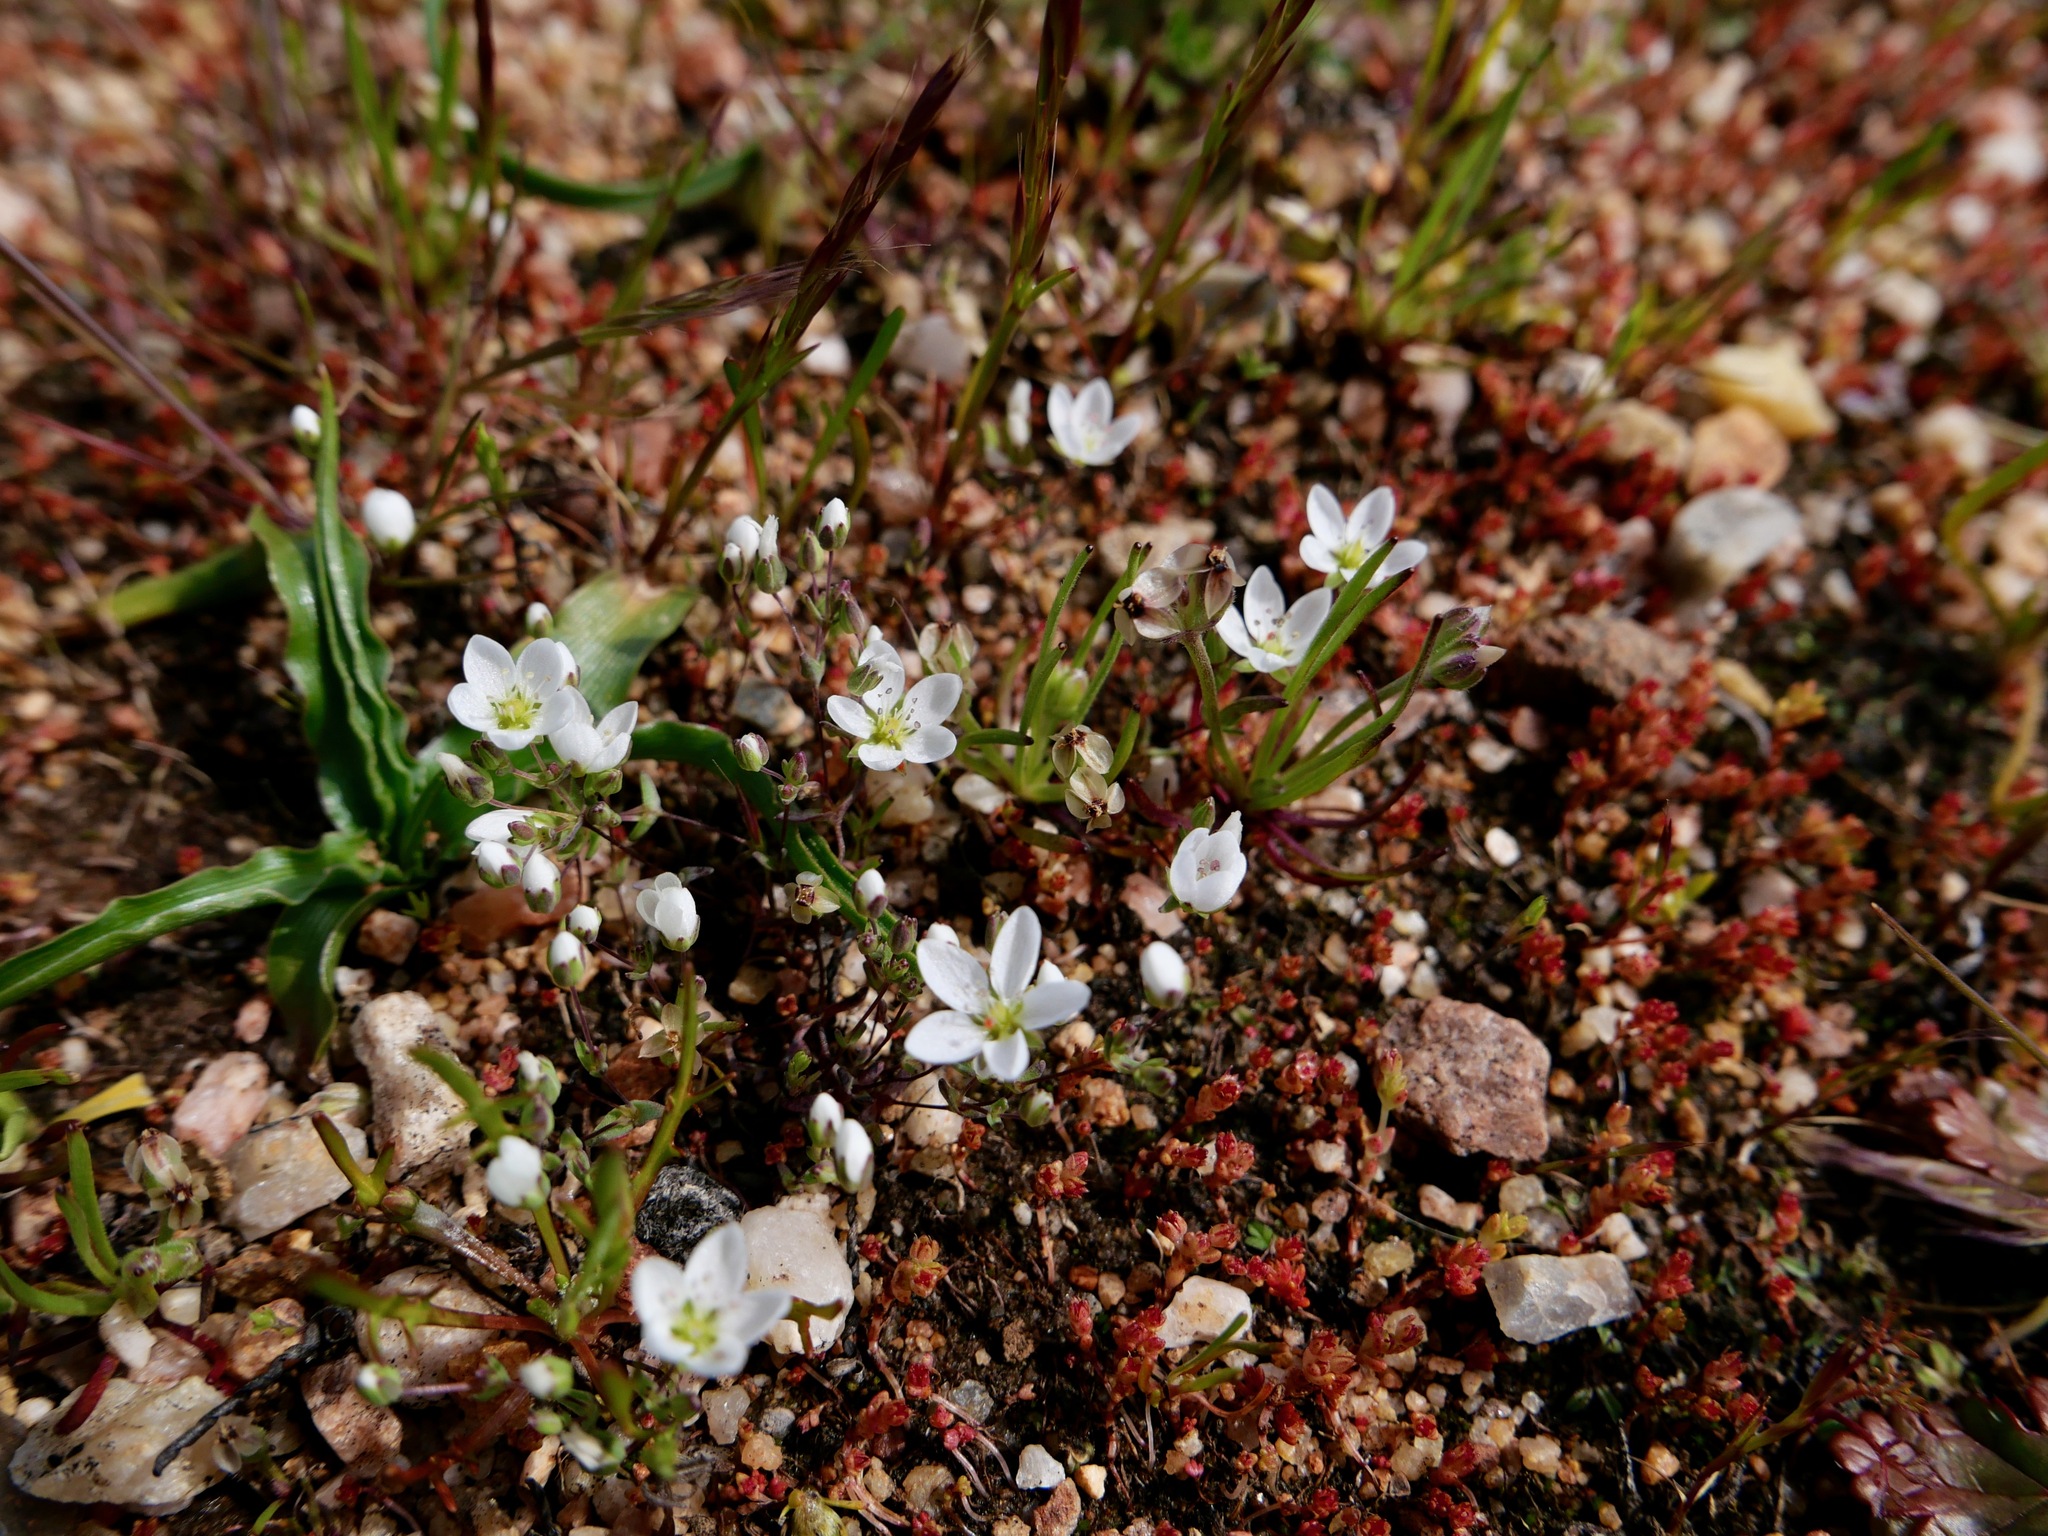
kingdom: Plantae
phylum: Tracheophyta
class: Magnoliopsida
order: Caryophyllales
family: Caryophyllaceae
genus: Sabulina
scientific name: Sabulina douglasii
